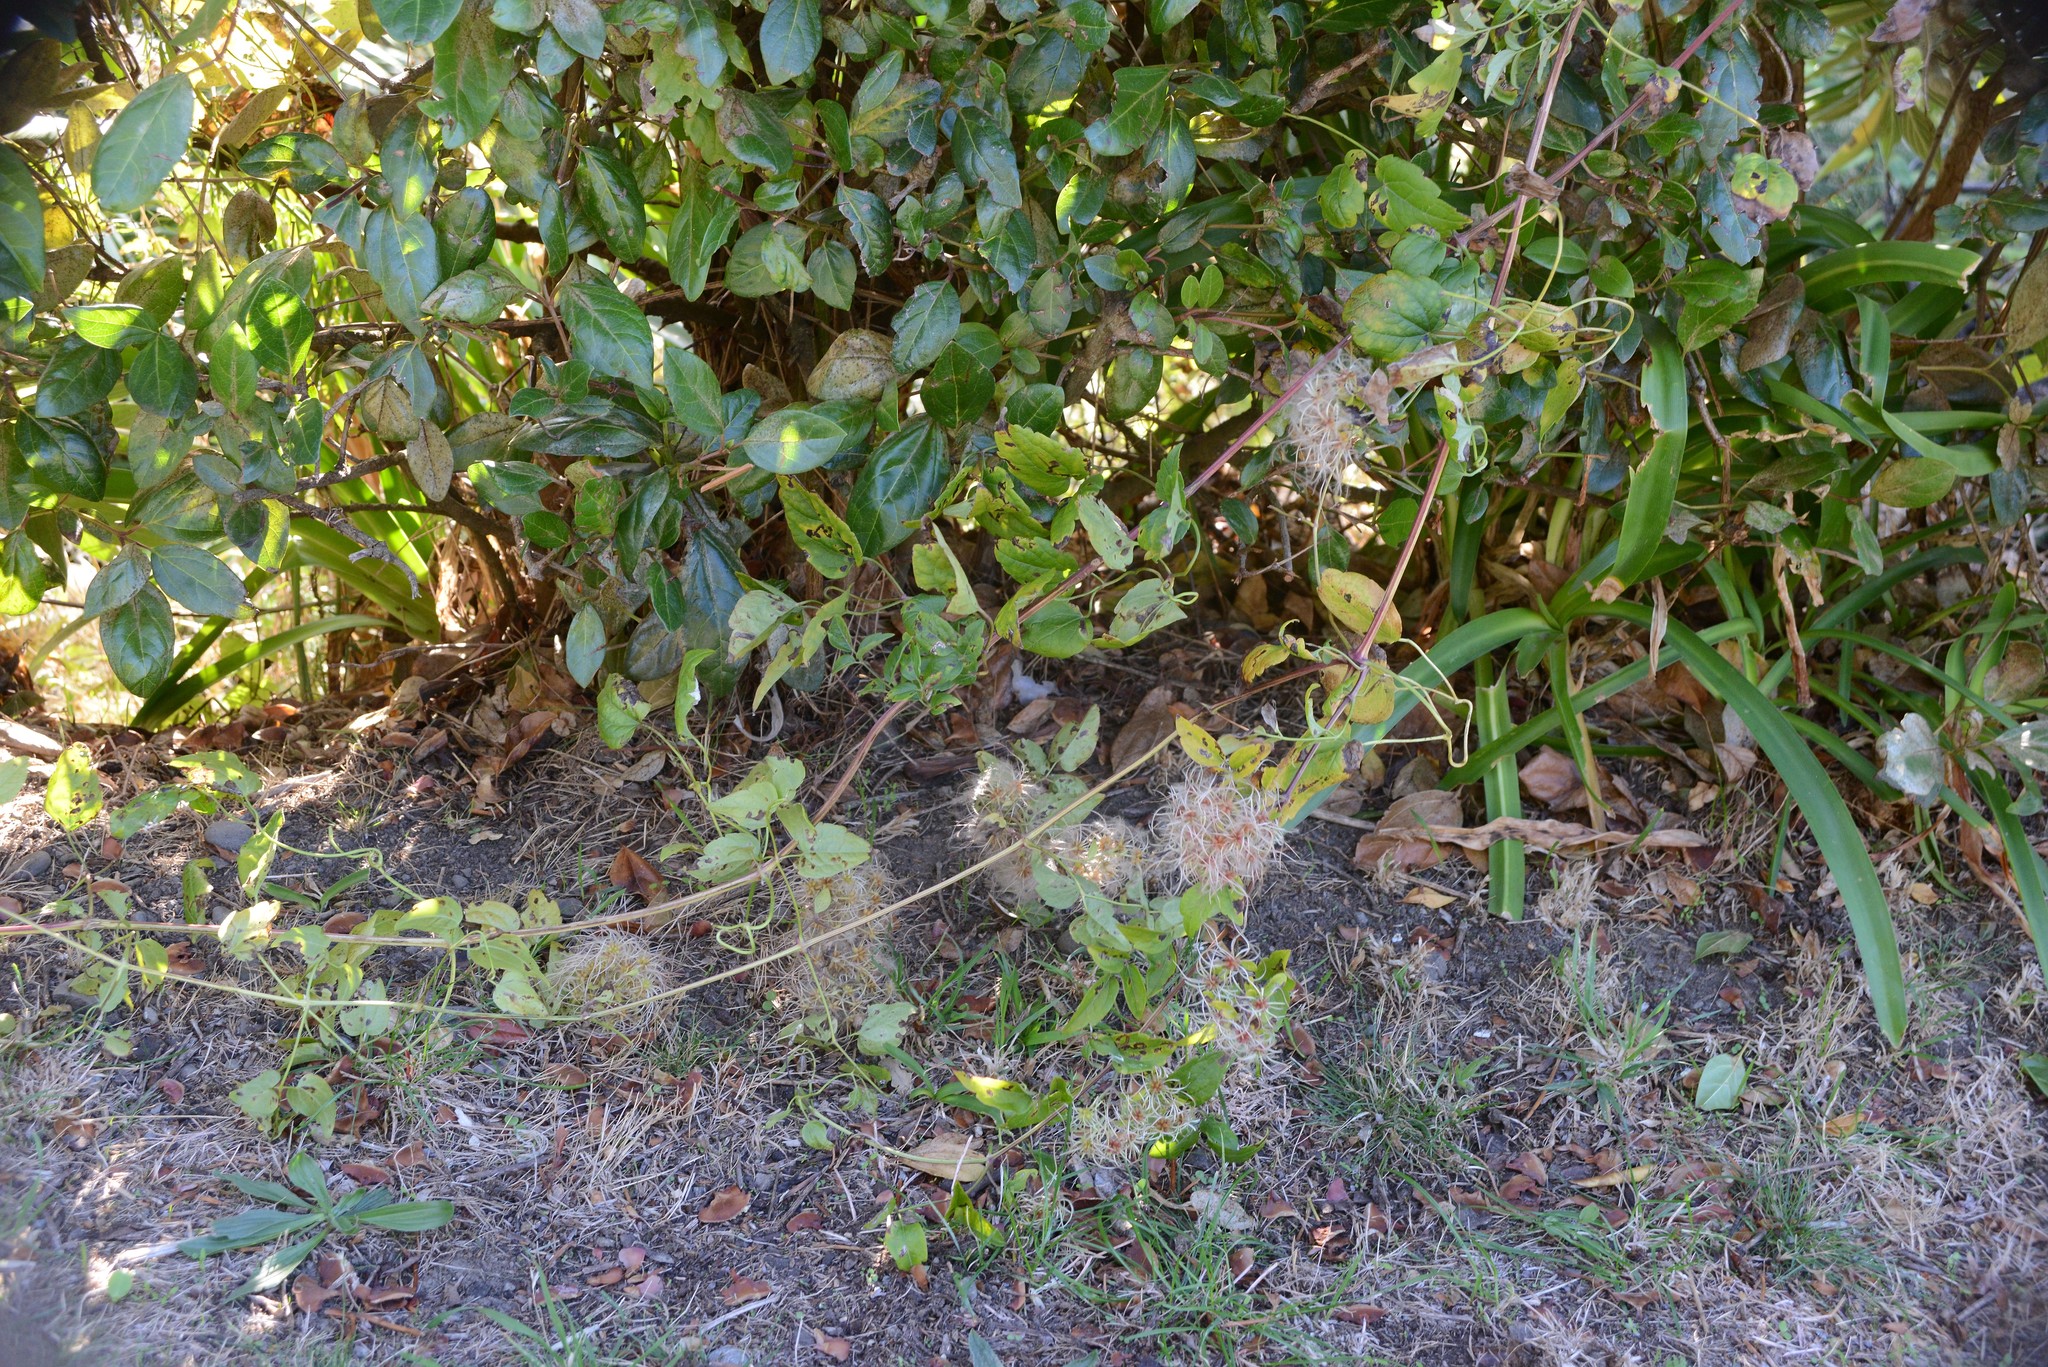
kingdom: Plantae
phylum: Tracheophyta
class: Magnoliopsida
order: Ranunculales
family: Ranunculaceae
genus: Clematis
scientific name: Clematis vitalba
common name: Evergreen clematis
